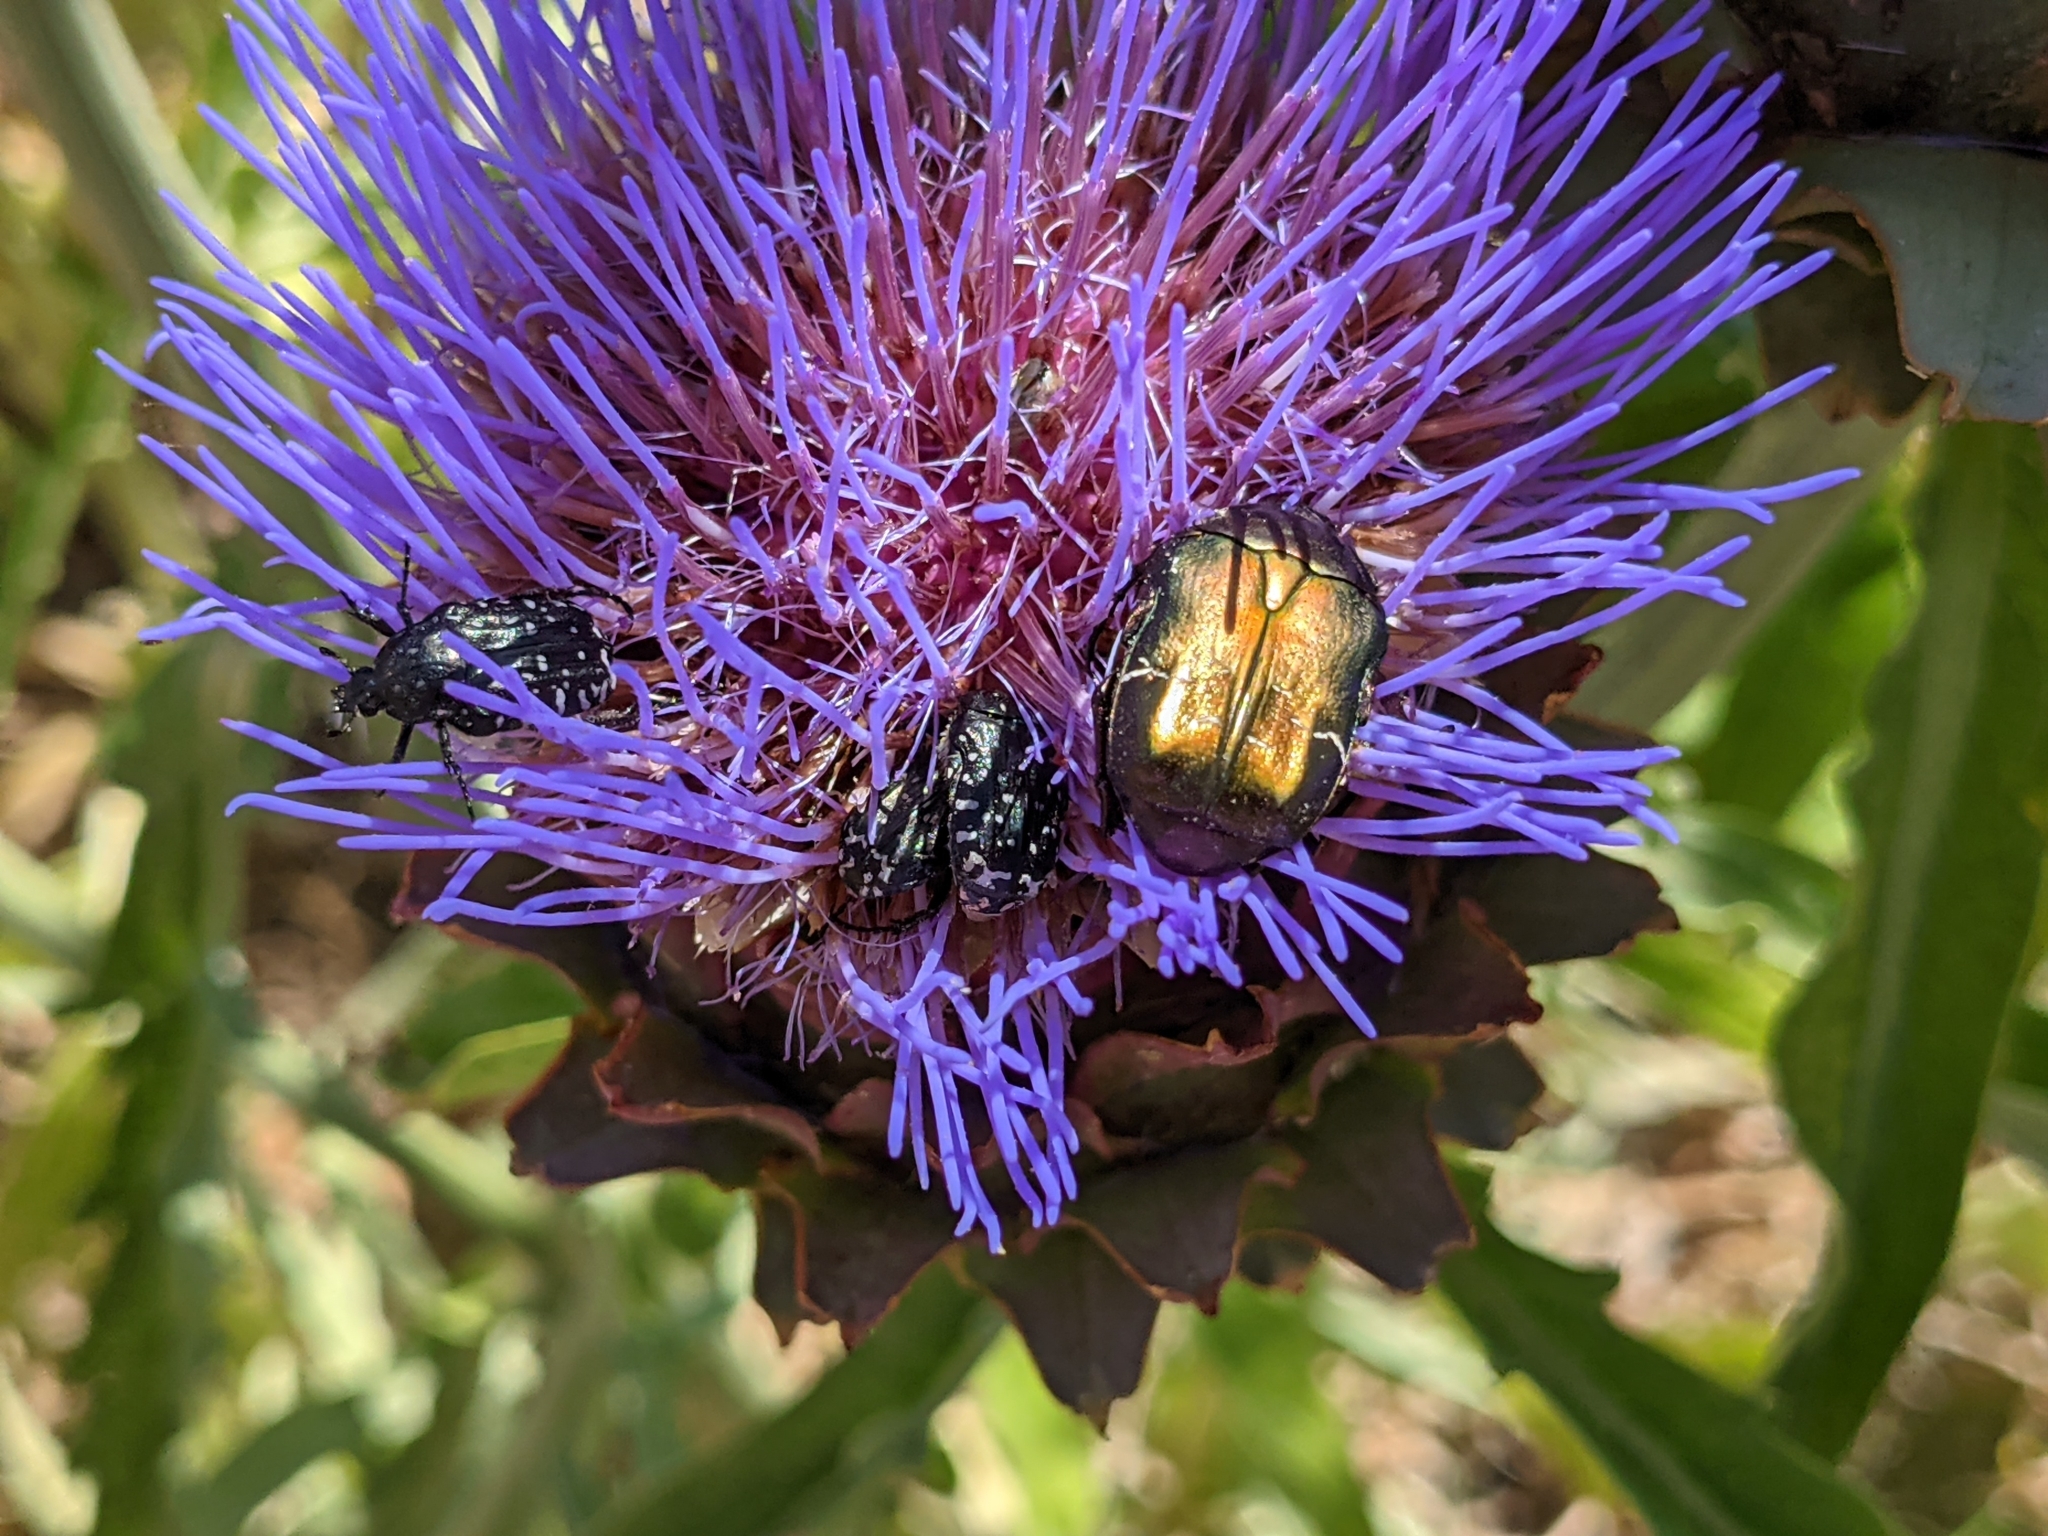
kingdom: Animalia
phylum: Arthropoda
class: Insecta
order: Coleoptera
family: Scarabaeidae
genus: Cetonia
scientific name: Cetonia aurata
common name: Rose chafer
